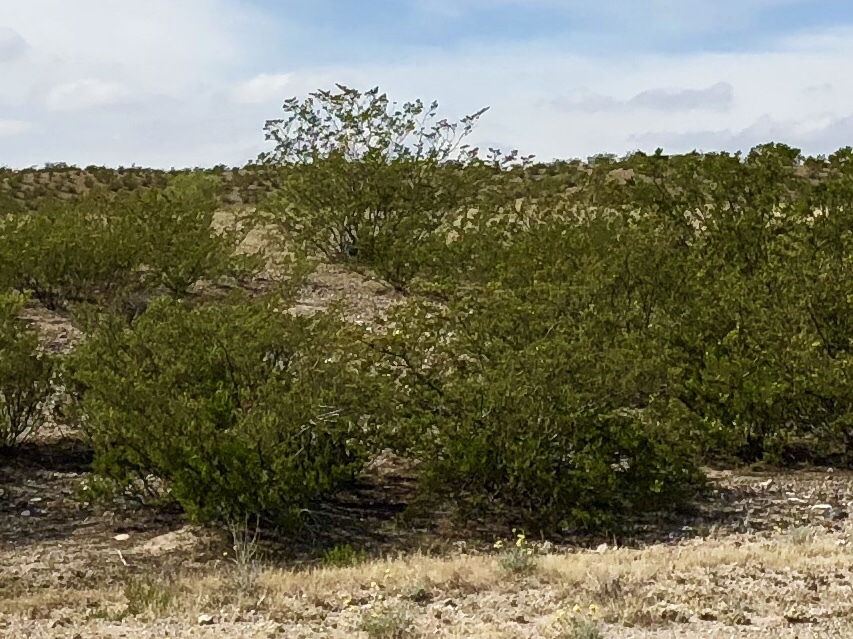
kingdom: Plantae
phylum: Tracheophyta
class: Magnoliopsida
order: Zygophyllales
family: Zygophyllaceae
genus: Larrea
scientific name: Larrea tridentata
